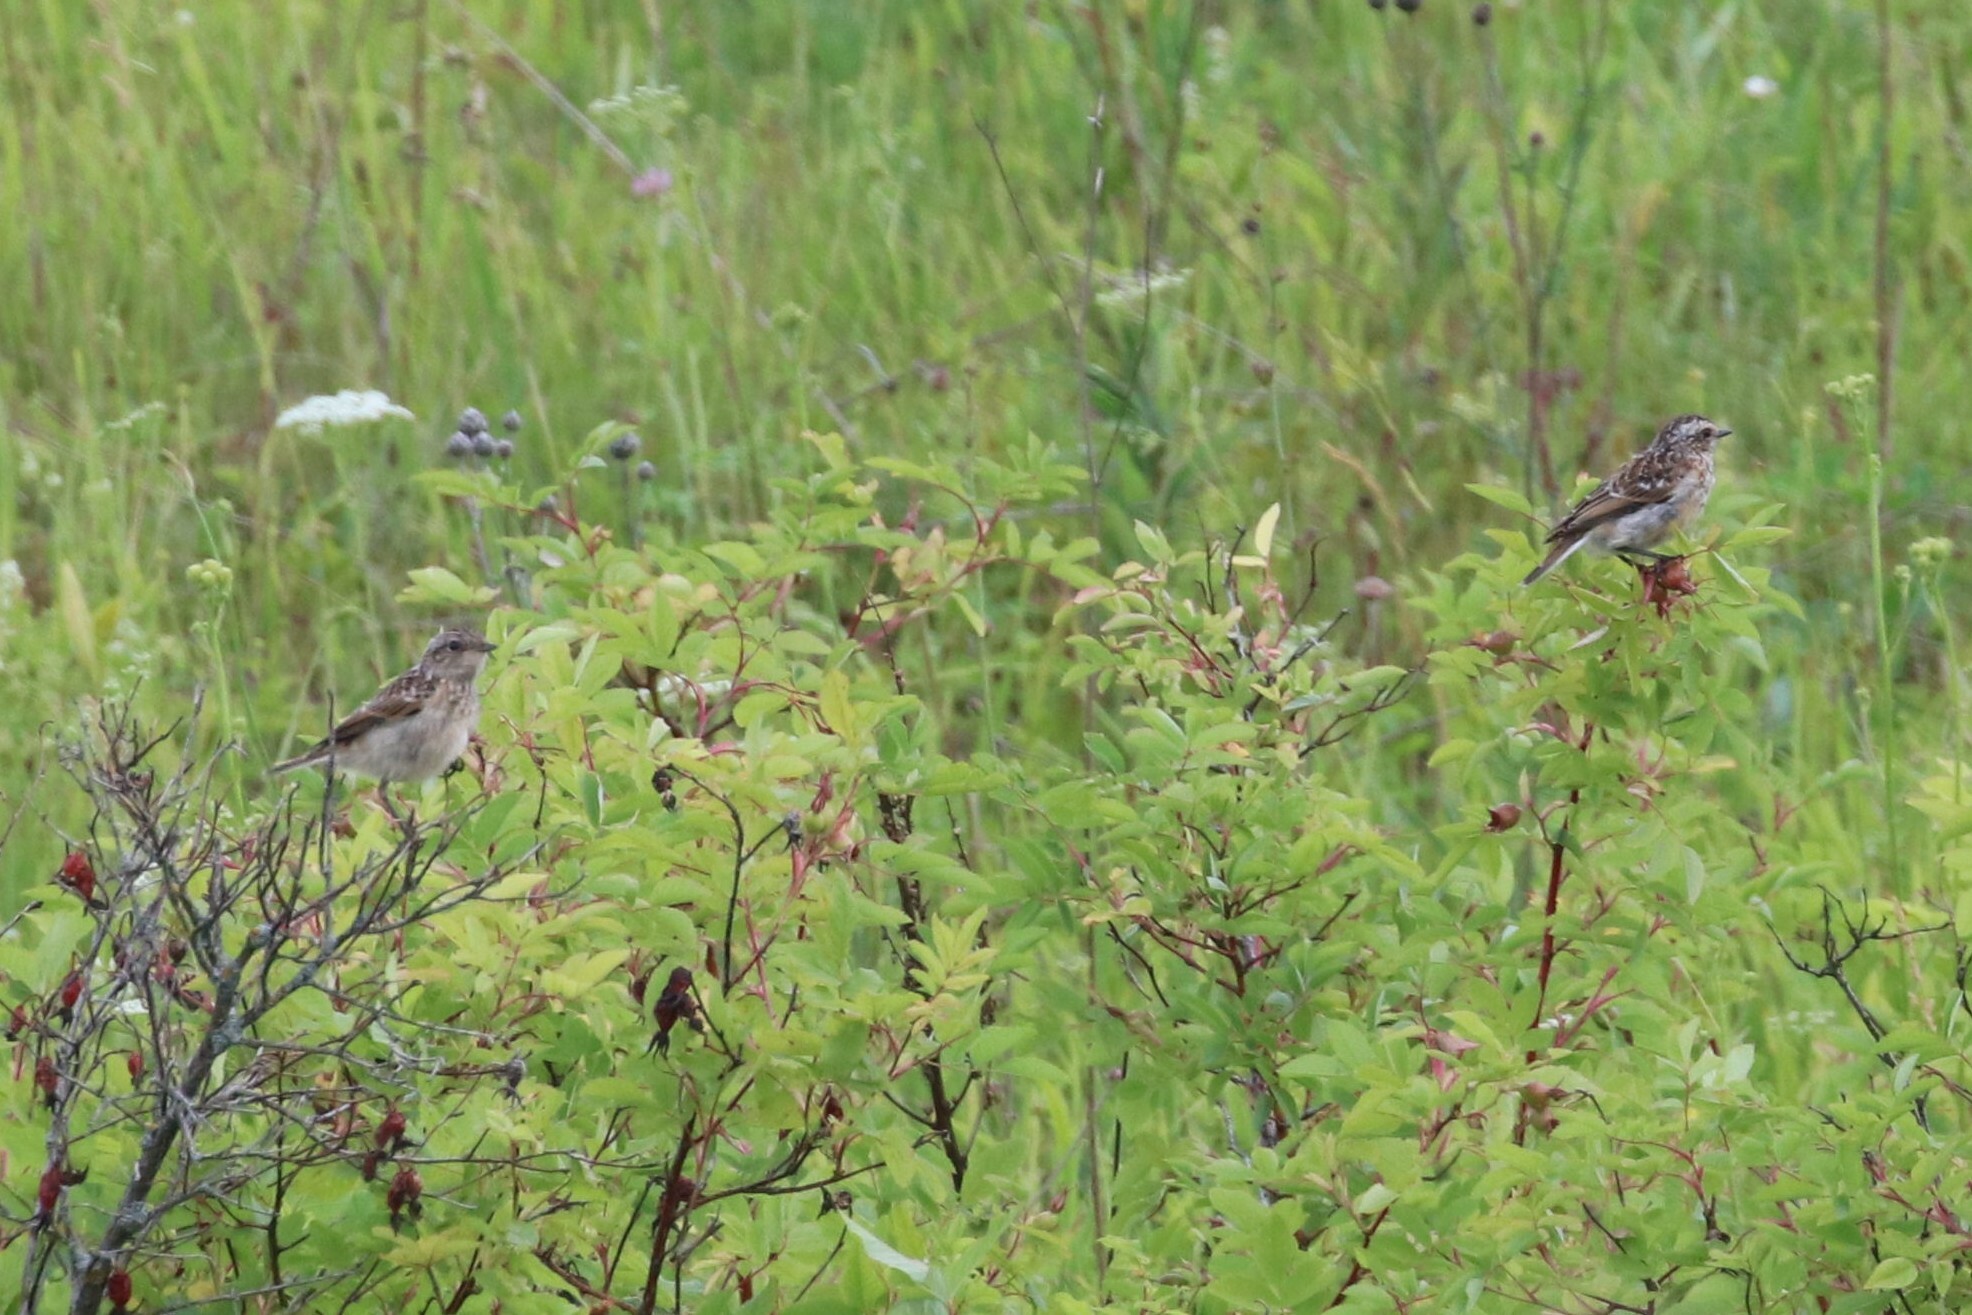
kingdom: Animalia
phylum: Chordata
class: Aves
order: Passeriformes
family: Muscicapidae
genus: Saxicola
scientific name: Saxicola rubetra
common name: Whinchat
